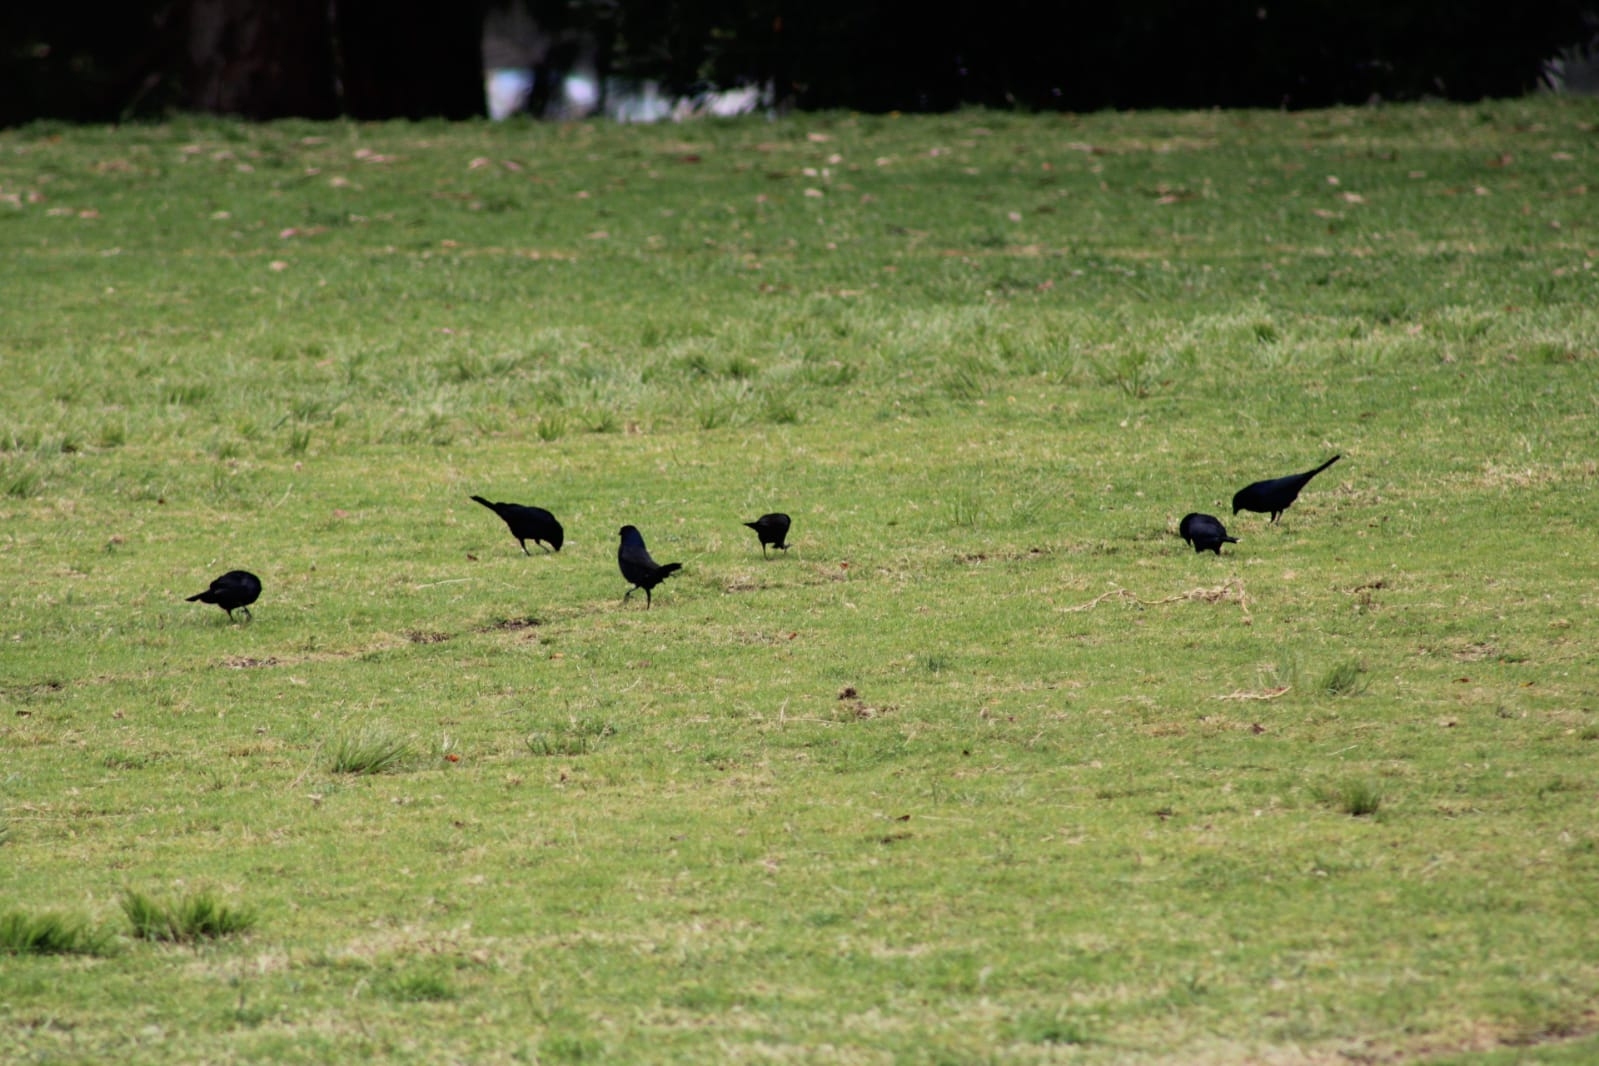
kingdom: Animalia
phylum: Chordata
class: Aves
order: Passeriformes
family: Icteridae
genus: Molothrus
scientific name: Molothrus bonariensis
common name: Shiny cowbird
